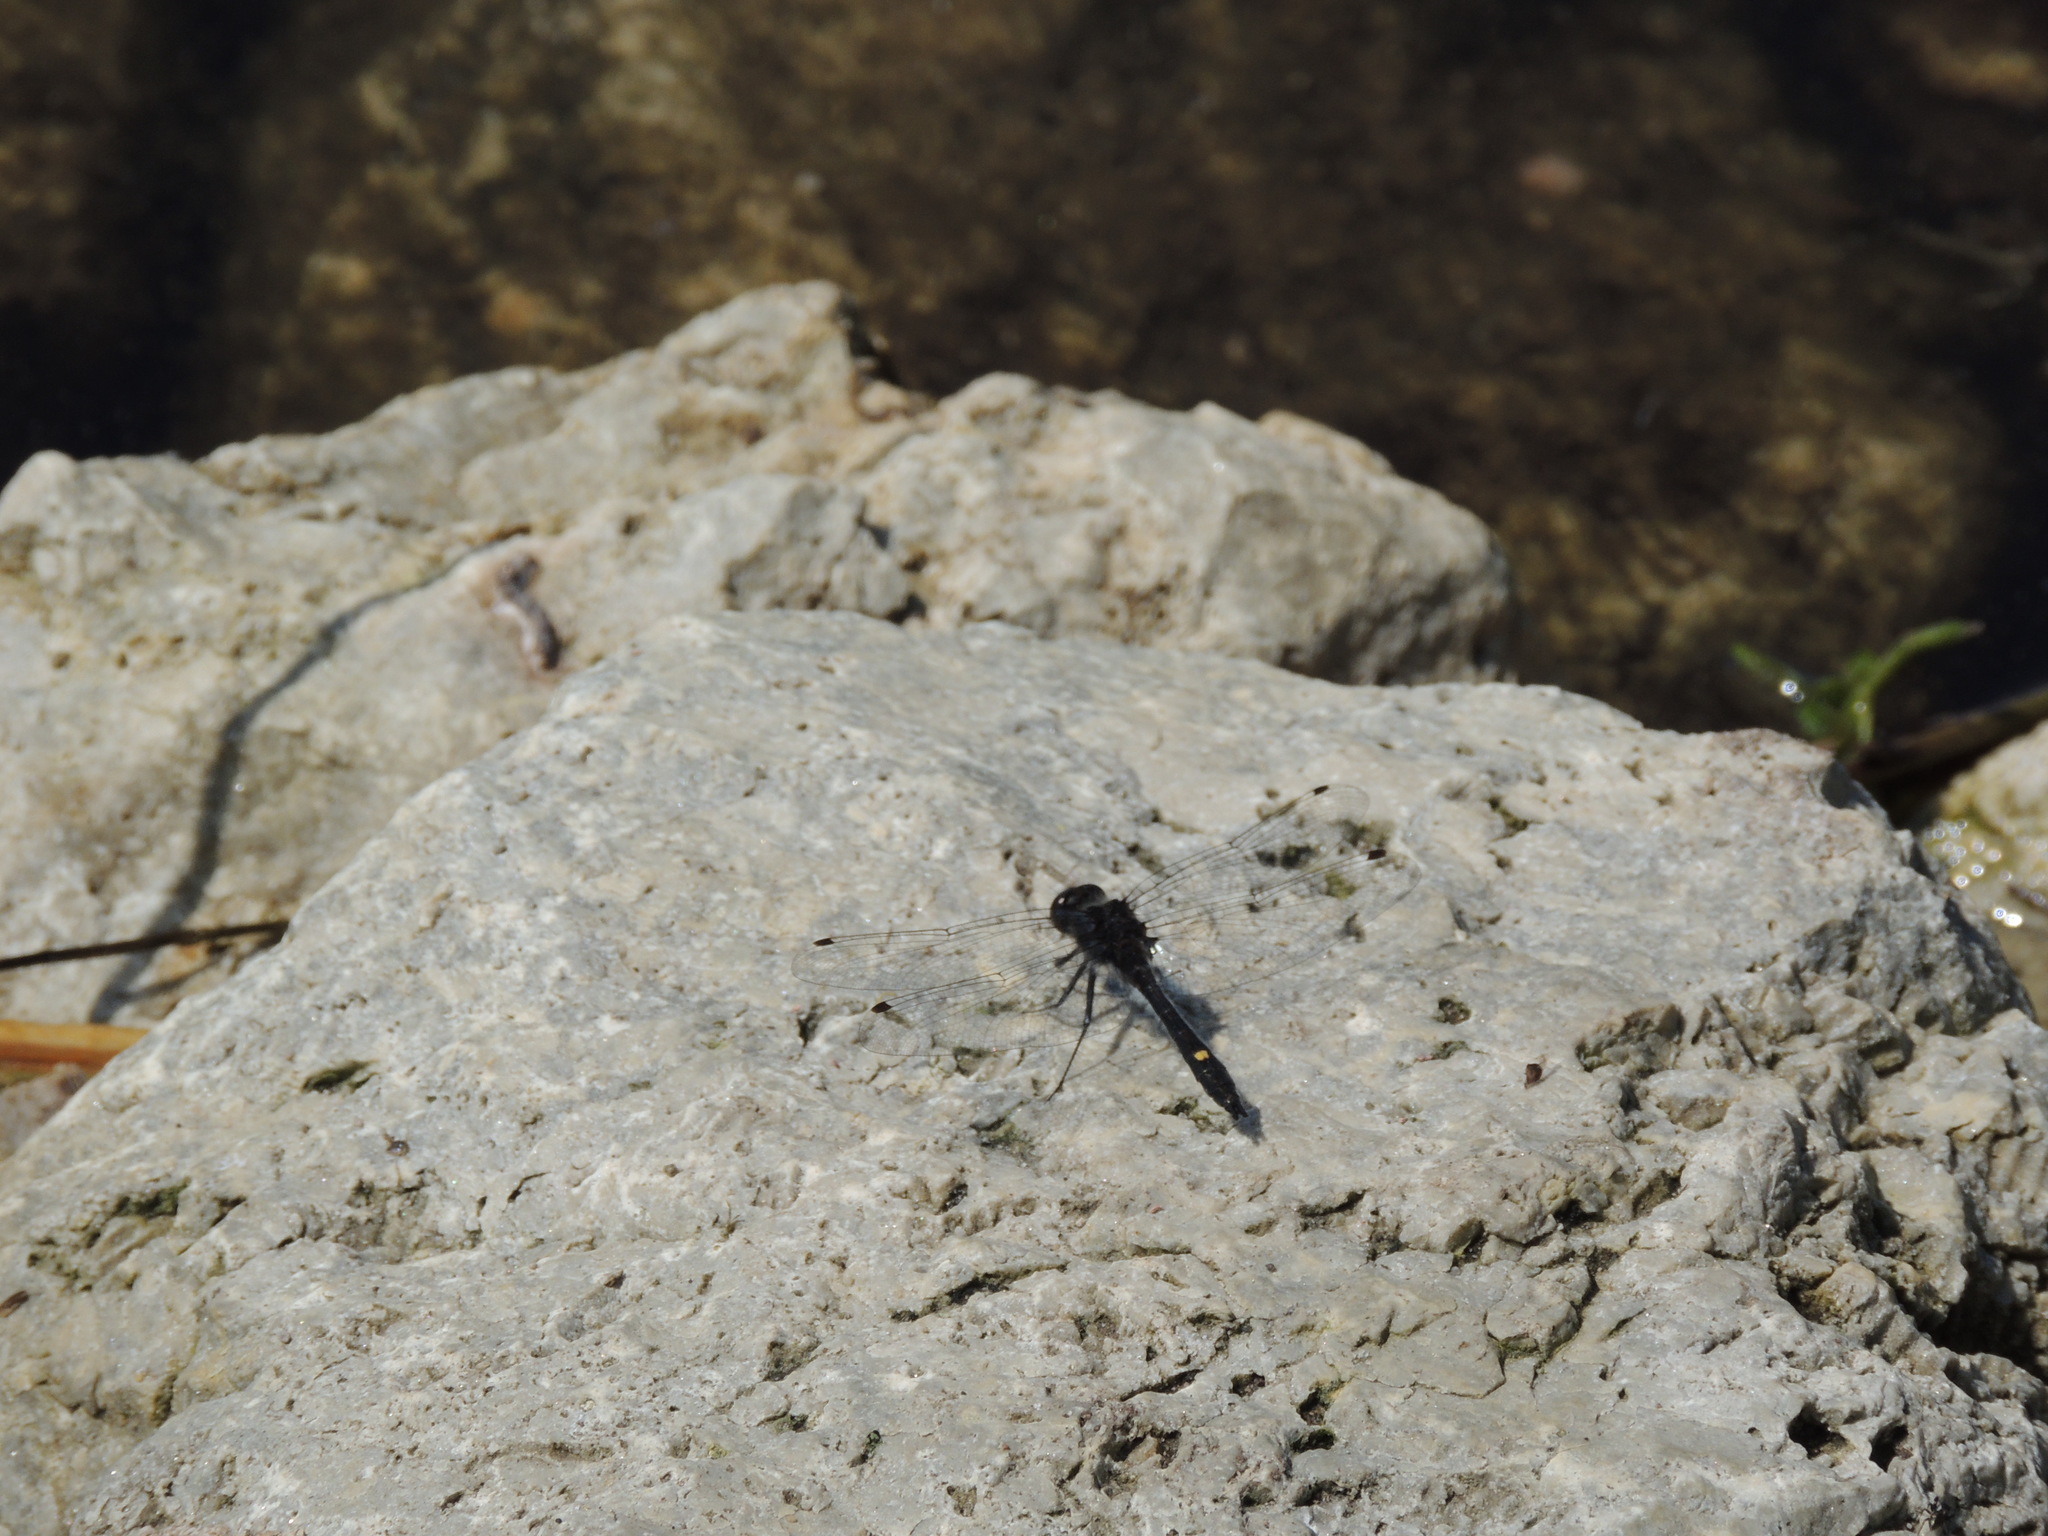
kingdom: Animalia
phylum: Arthropoda
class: Insecta
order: Odonata
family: Libellulidae
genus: Leucorrhinia
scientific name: Leucorrhinia intacta
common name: Dot-tailed whiteface
